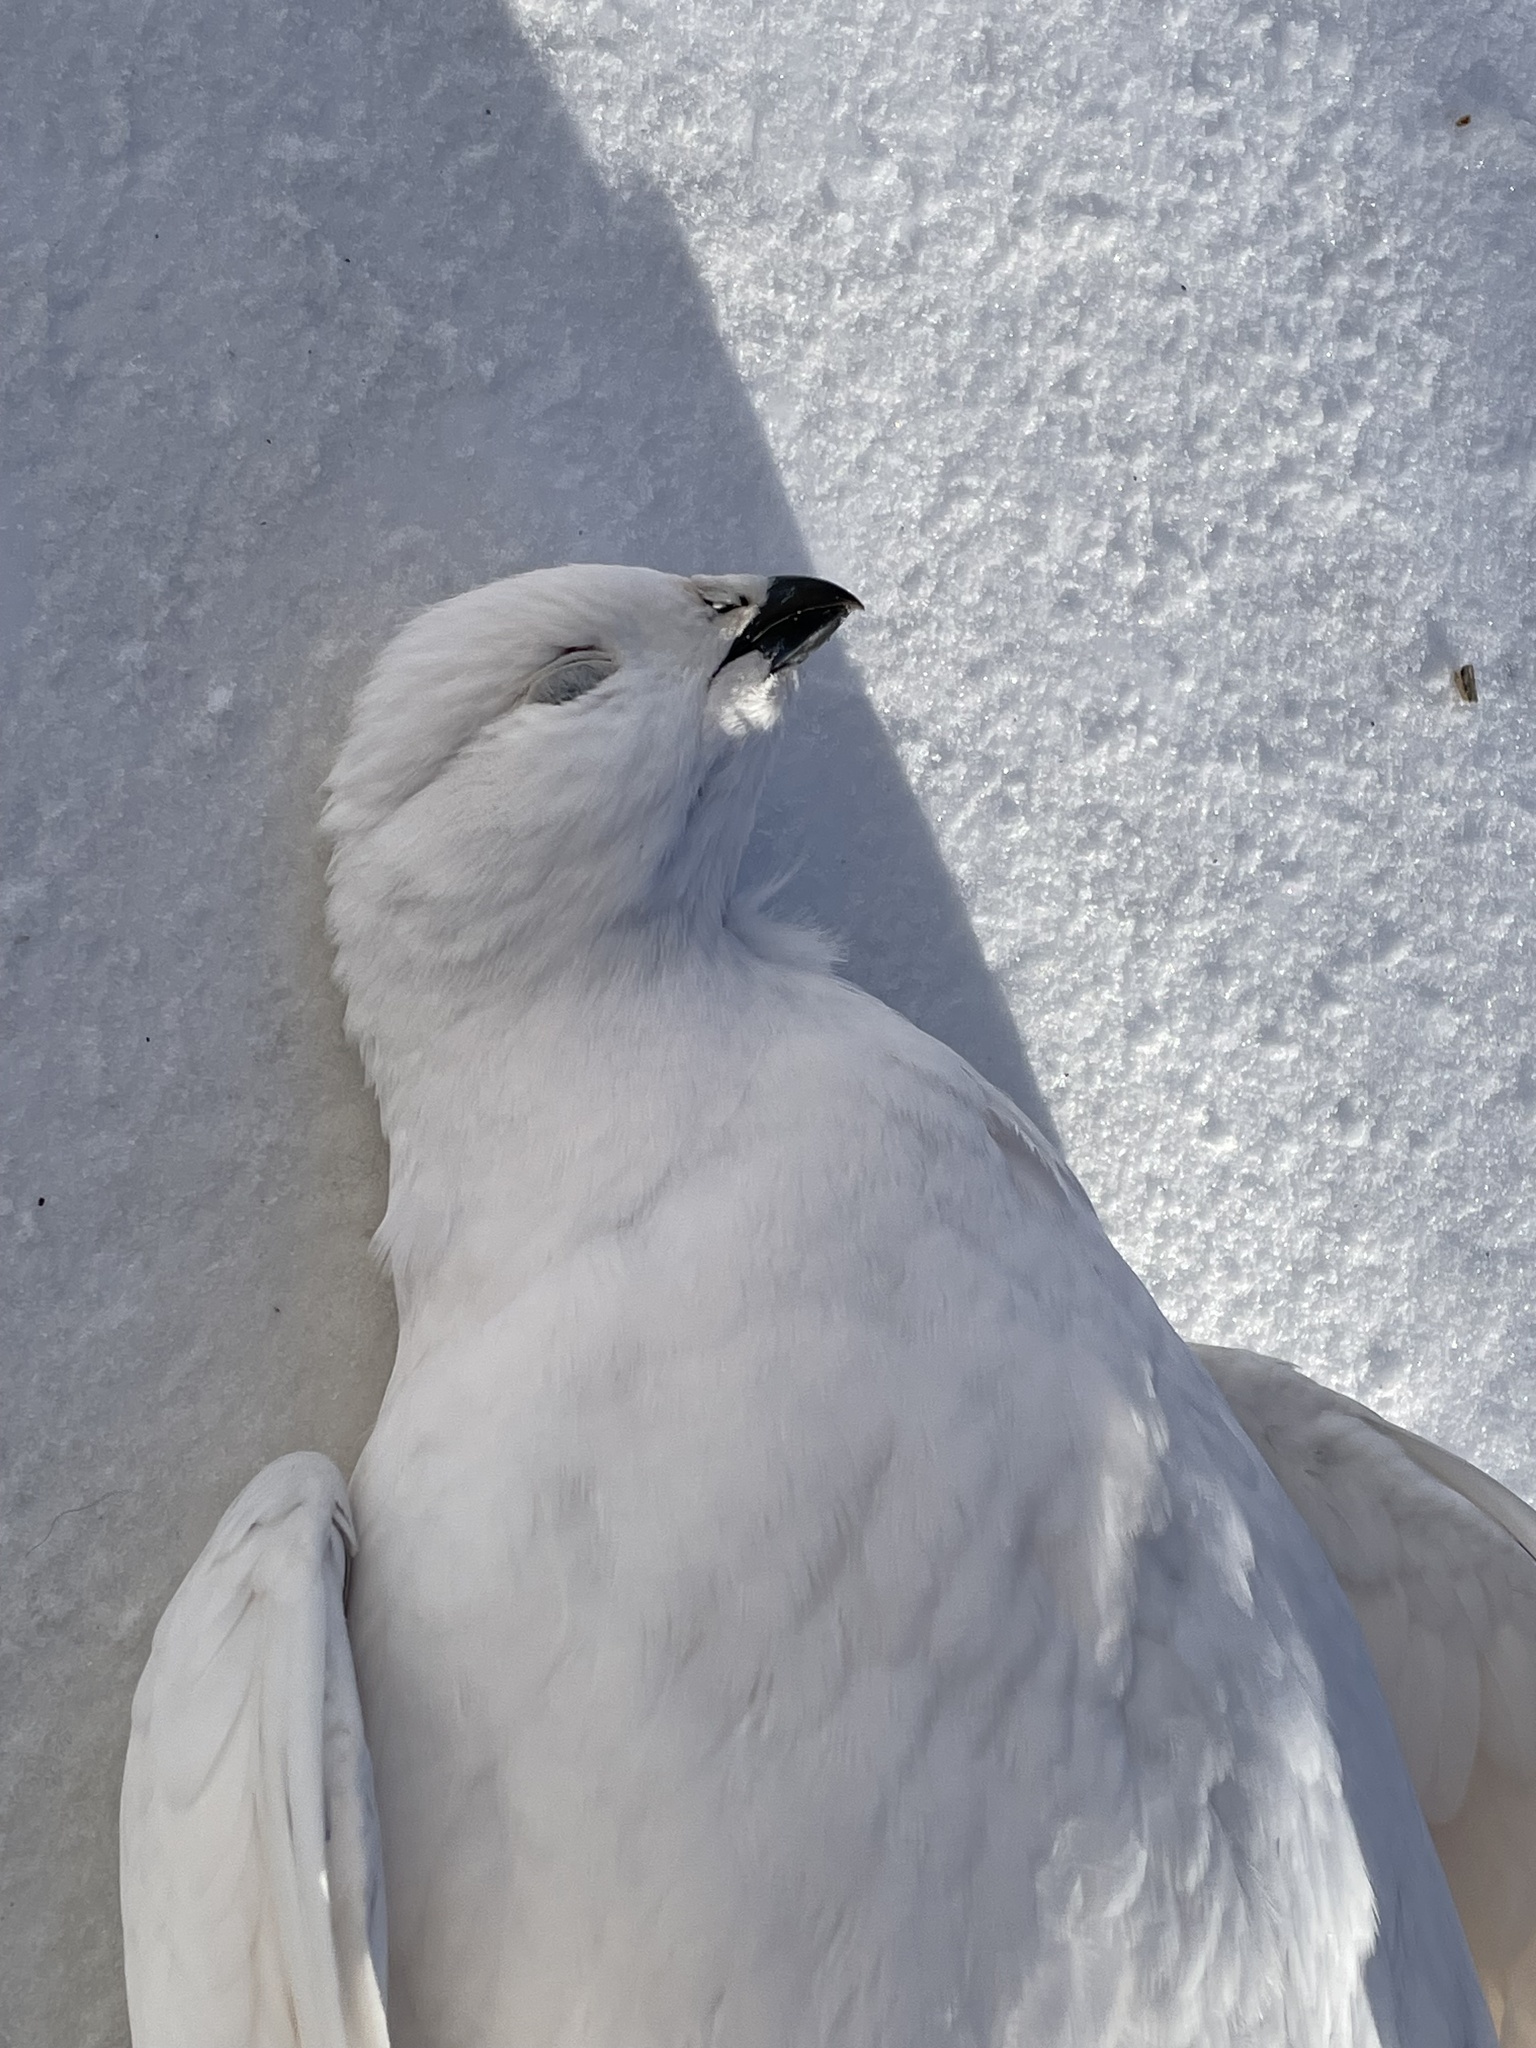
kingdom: Animalia
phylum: Chordata
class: Aves
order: Galliformes
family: Phasianidae
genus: Lagopus
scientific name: Lagopus lagopus
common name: Willow ptarmigan
